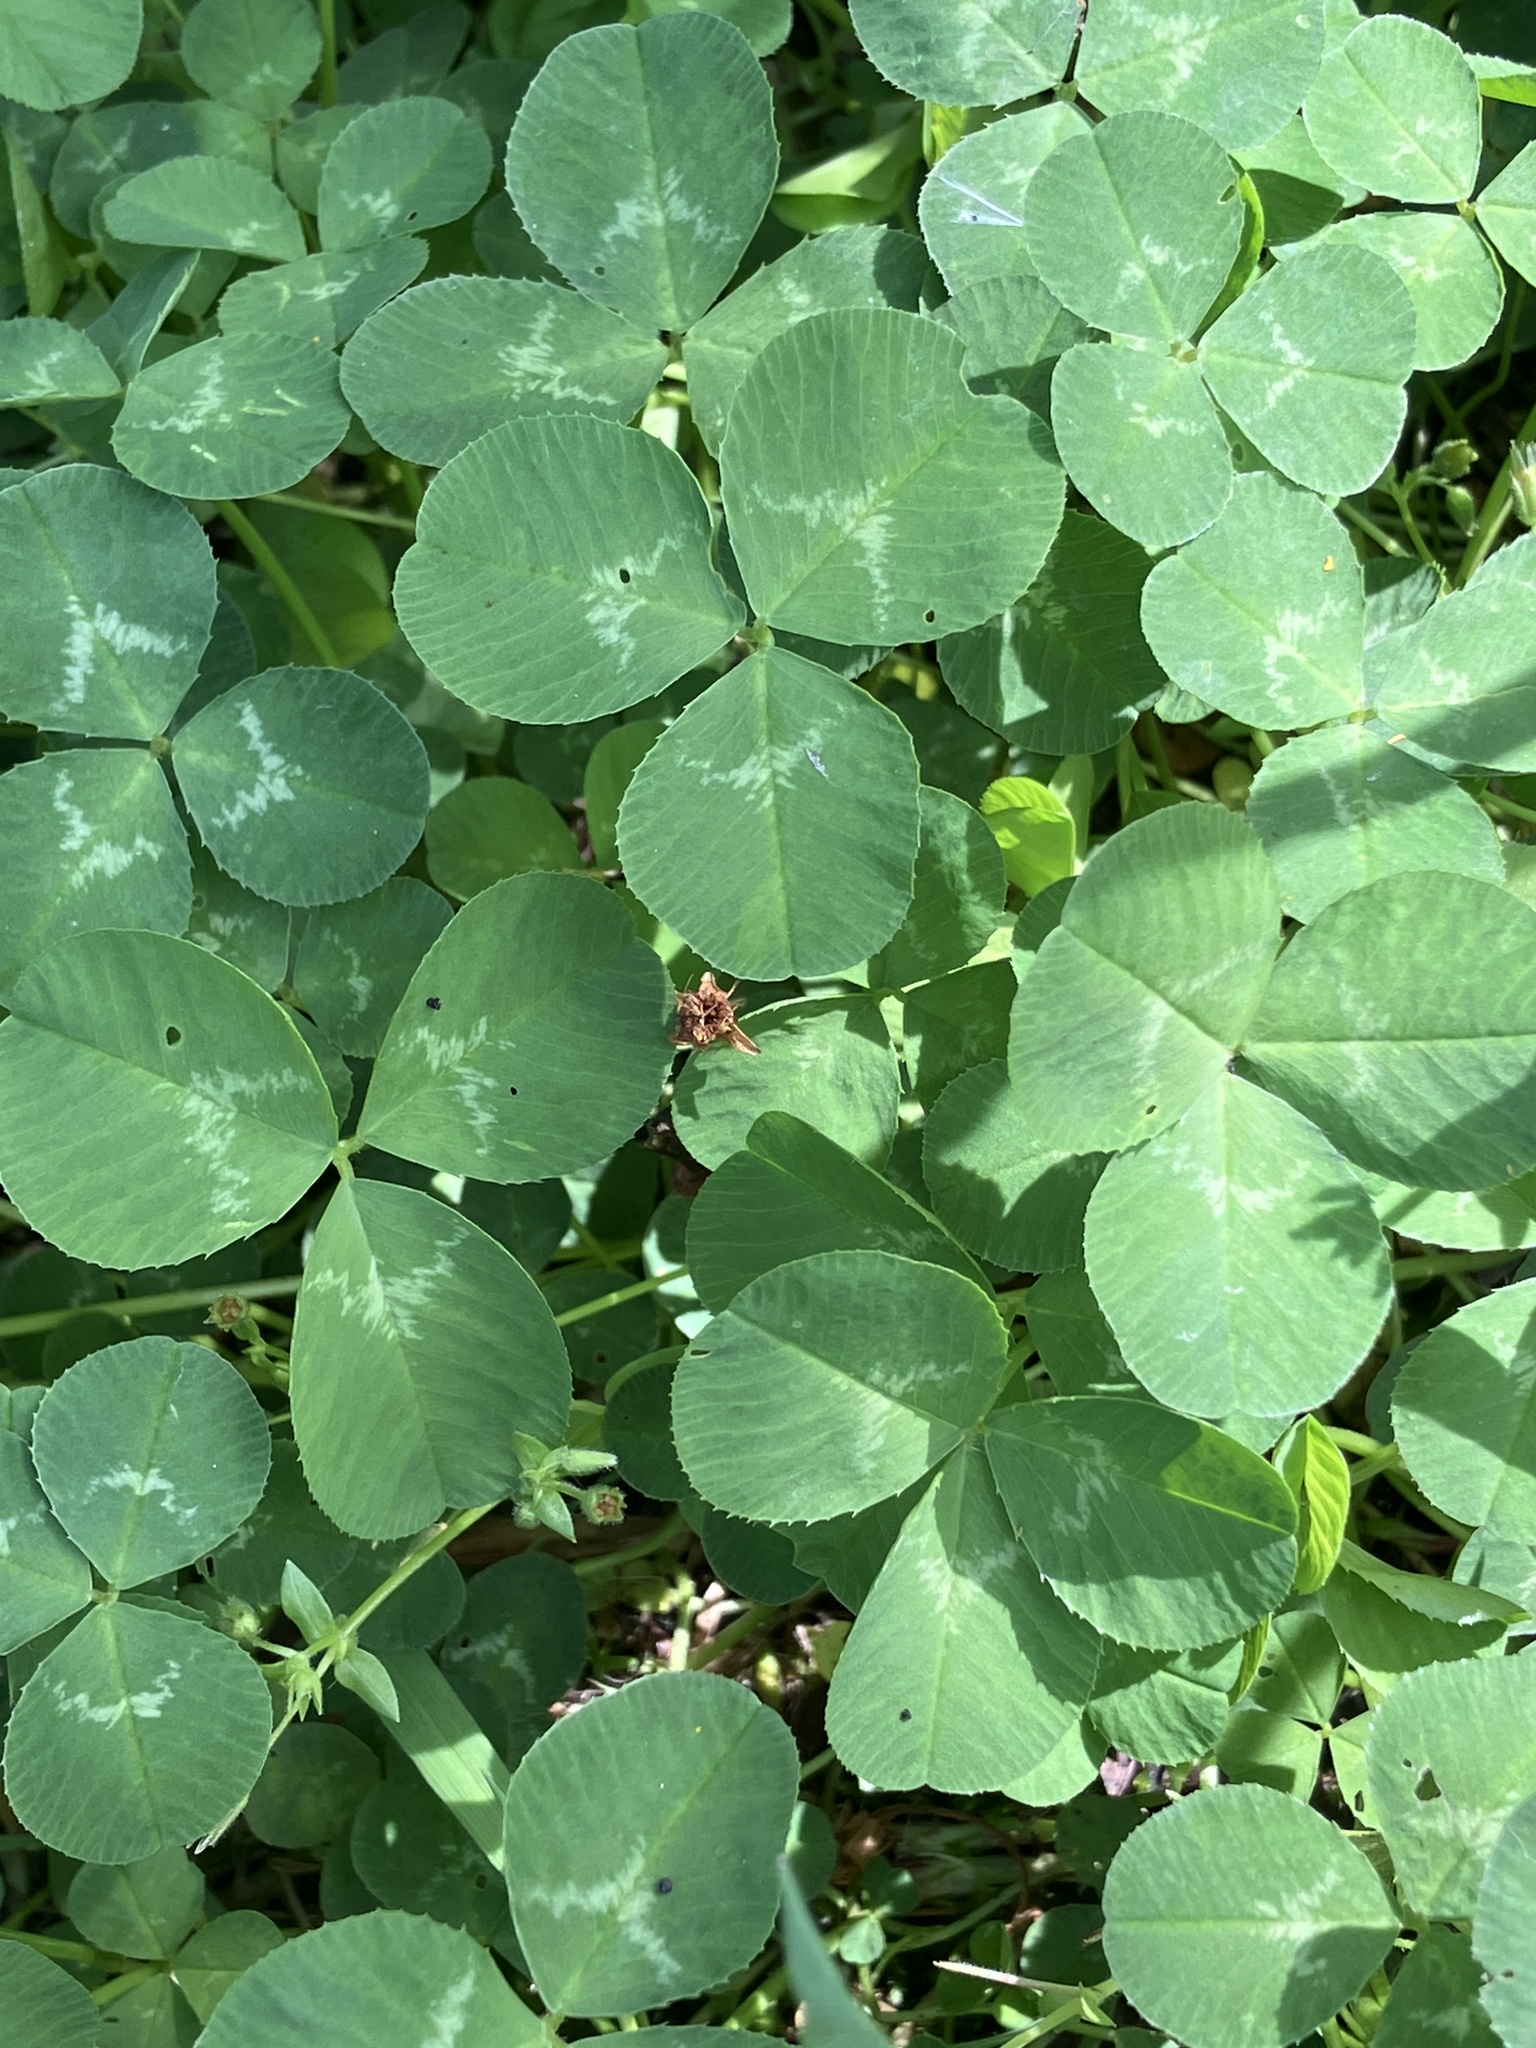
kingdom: Plantae
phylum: Tracheophyta
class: Magnoliopsida
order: Fabales
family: Fabaceae
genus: Trifolium
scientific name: Trifolium repens
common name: White clover
